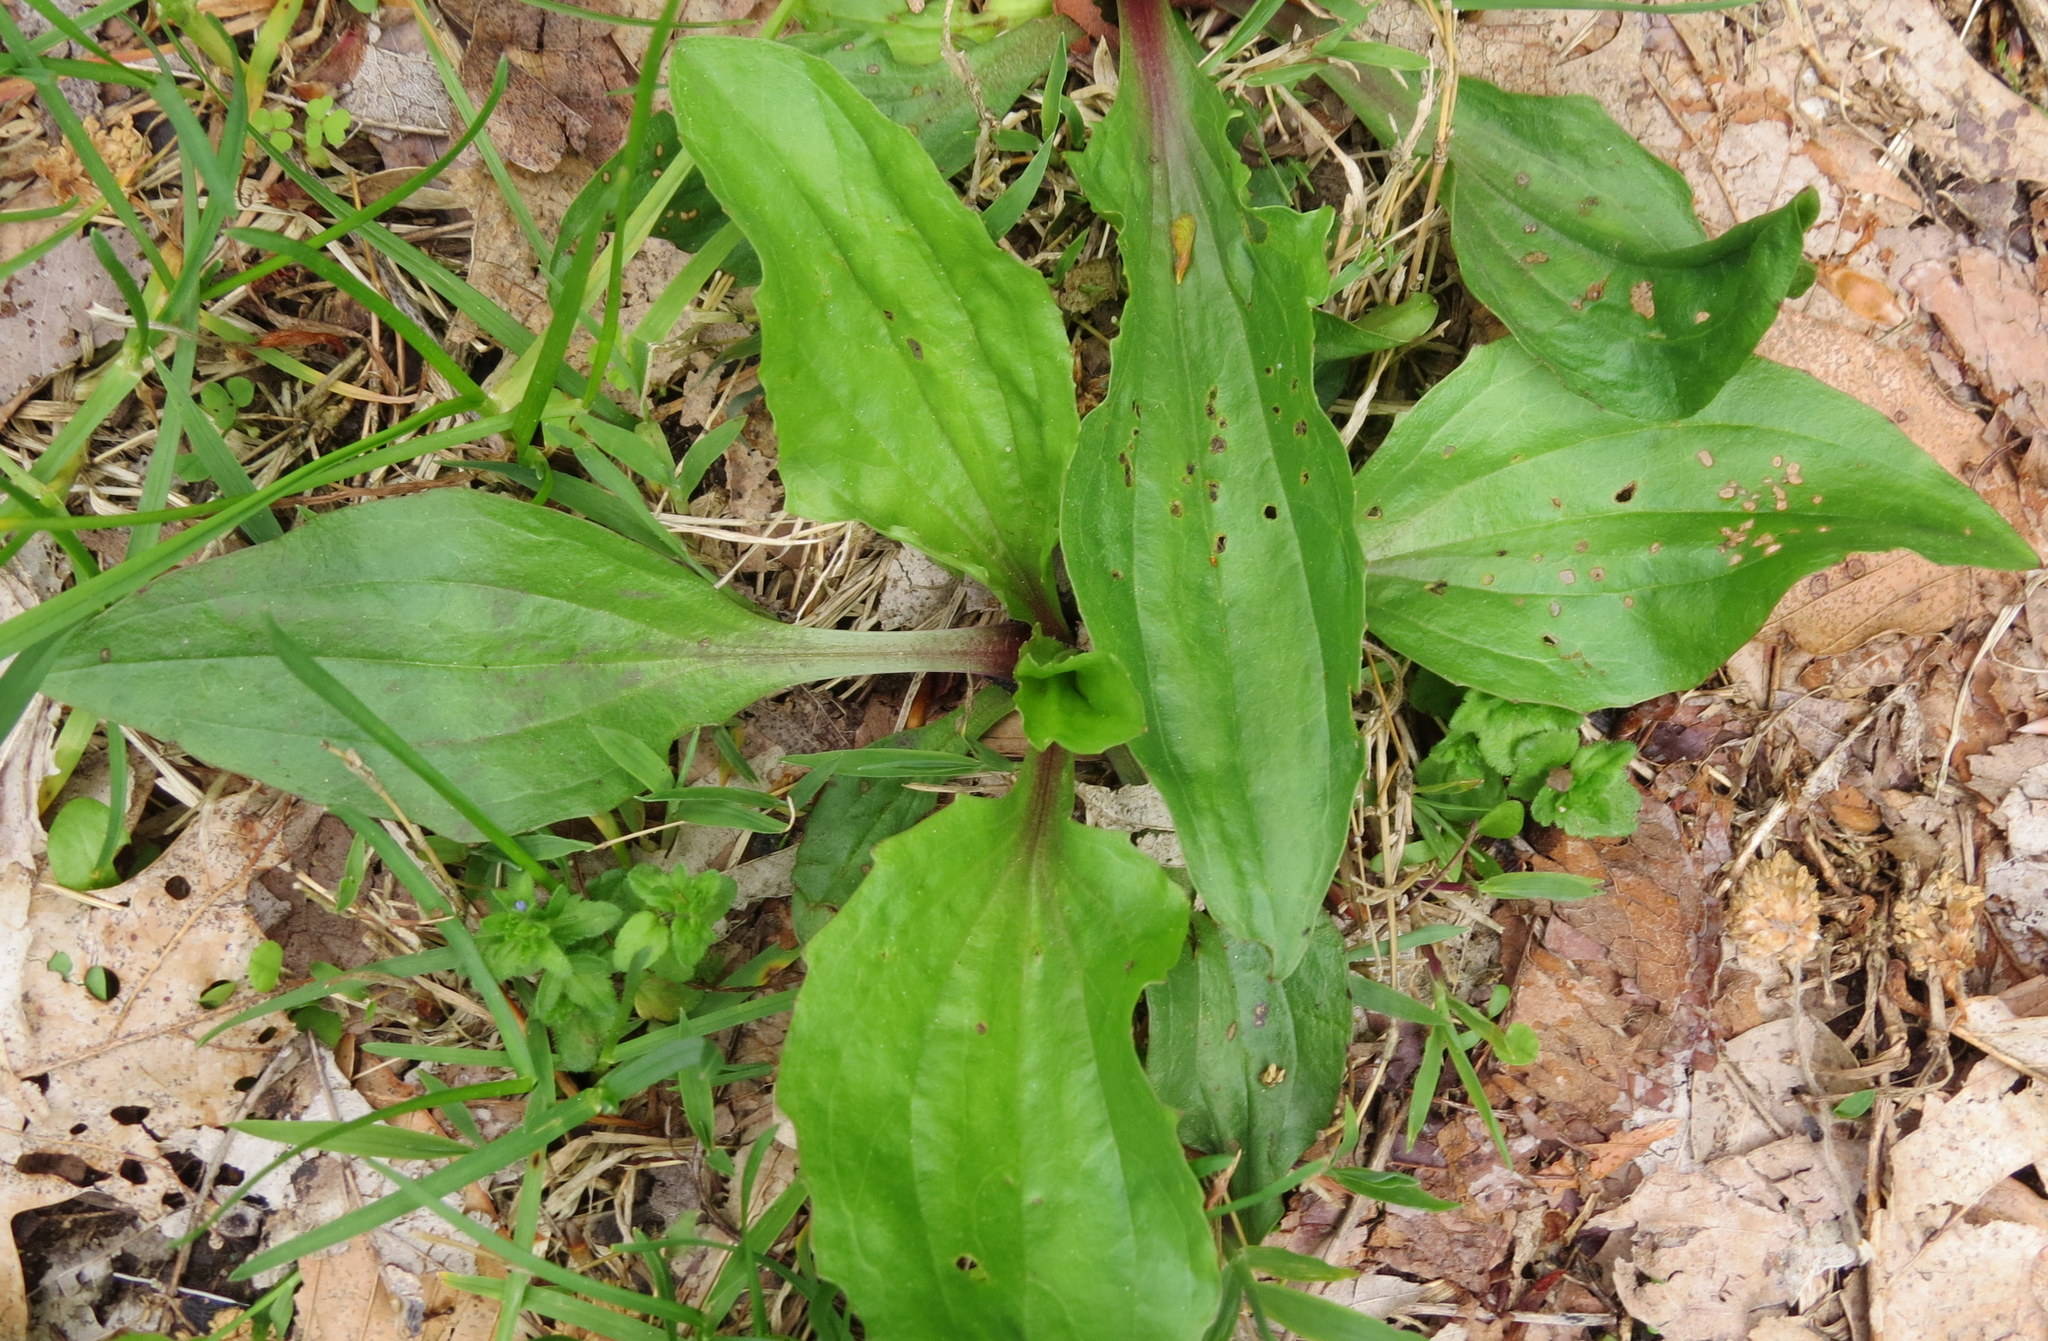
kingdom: Plantae
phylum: Tracheophyta
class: Magnoliopsida
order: Lamiales
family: Plantaginaceae
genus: Plantago
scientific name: Plantago rugelii
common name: American plantain
